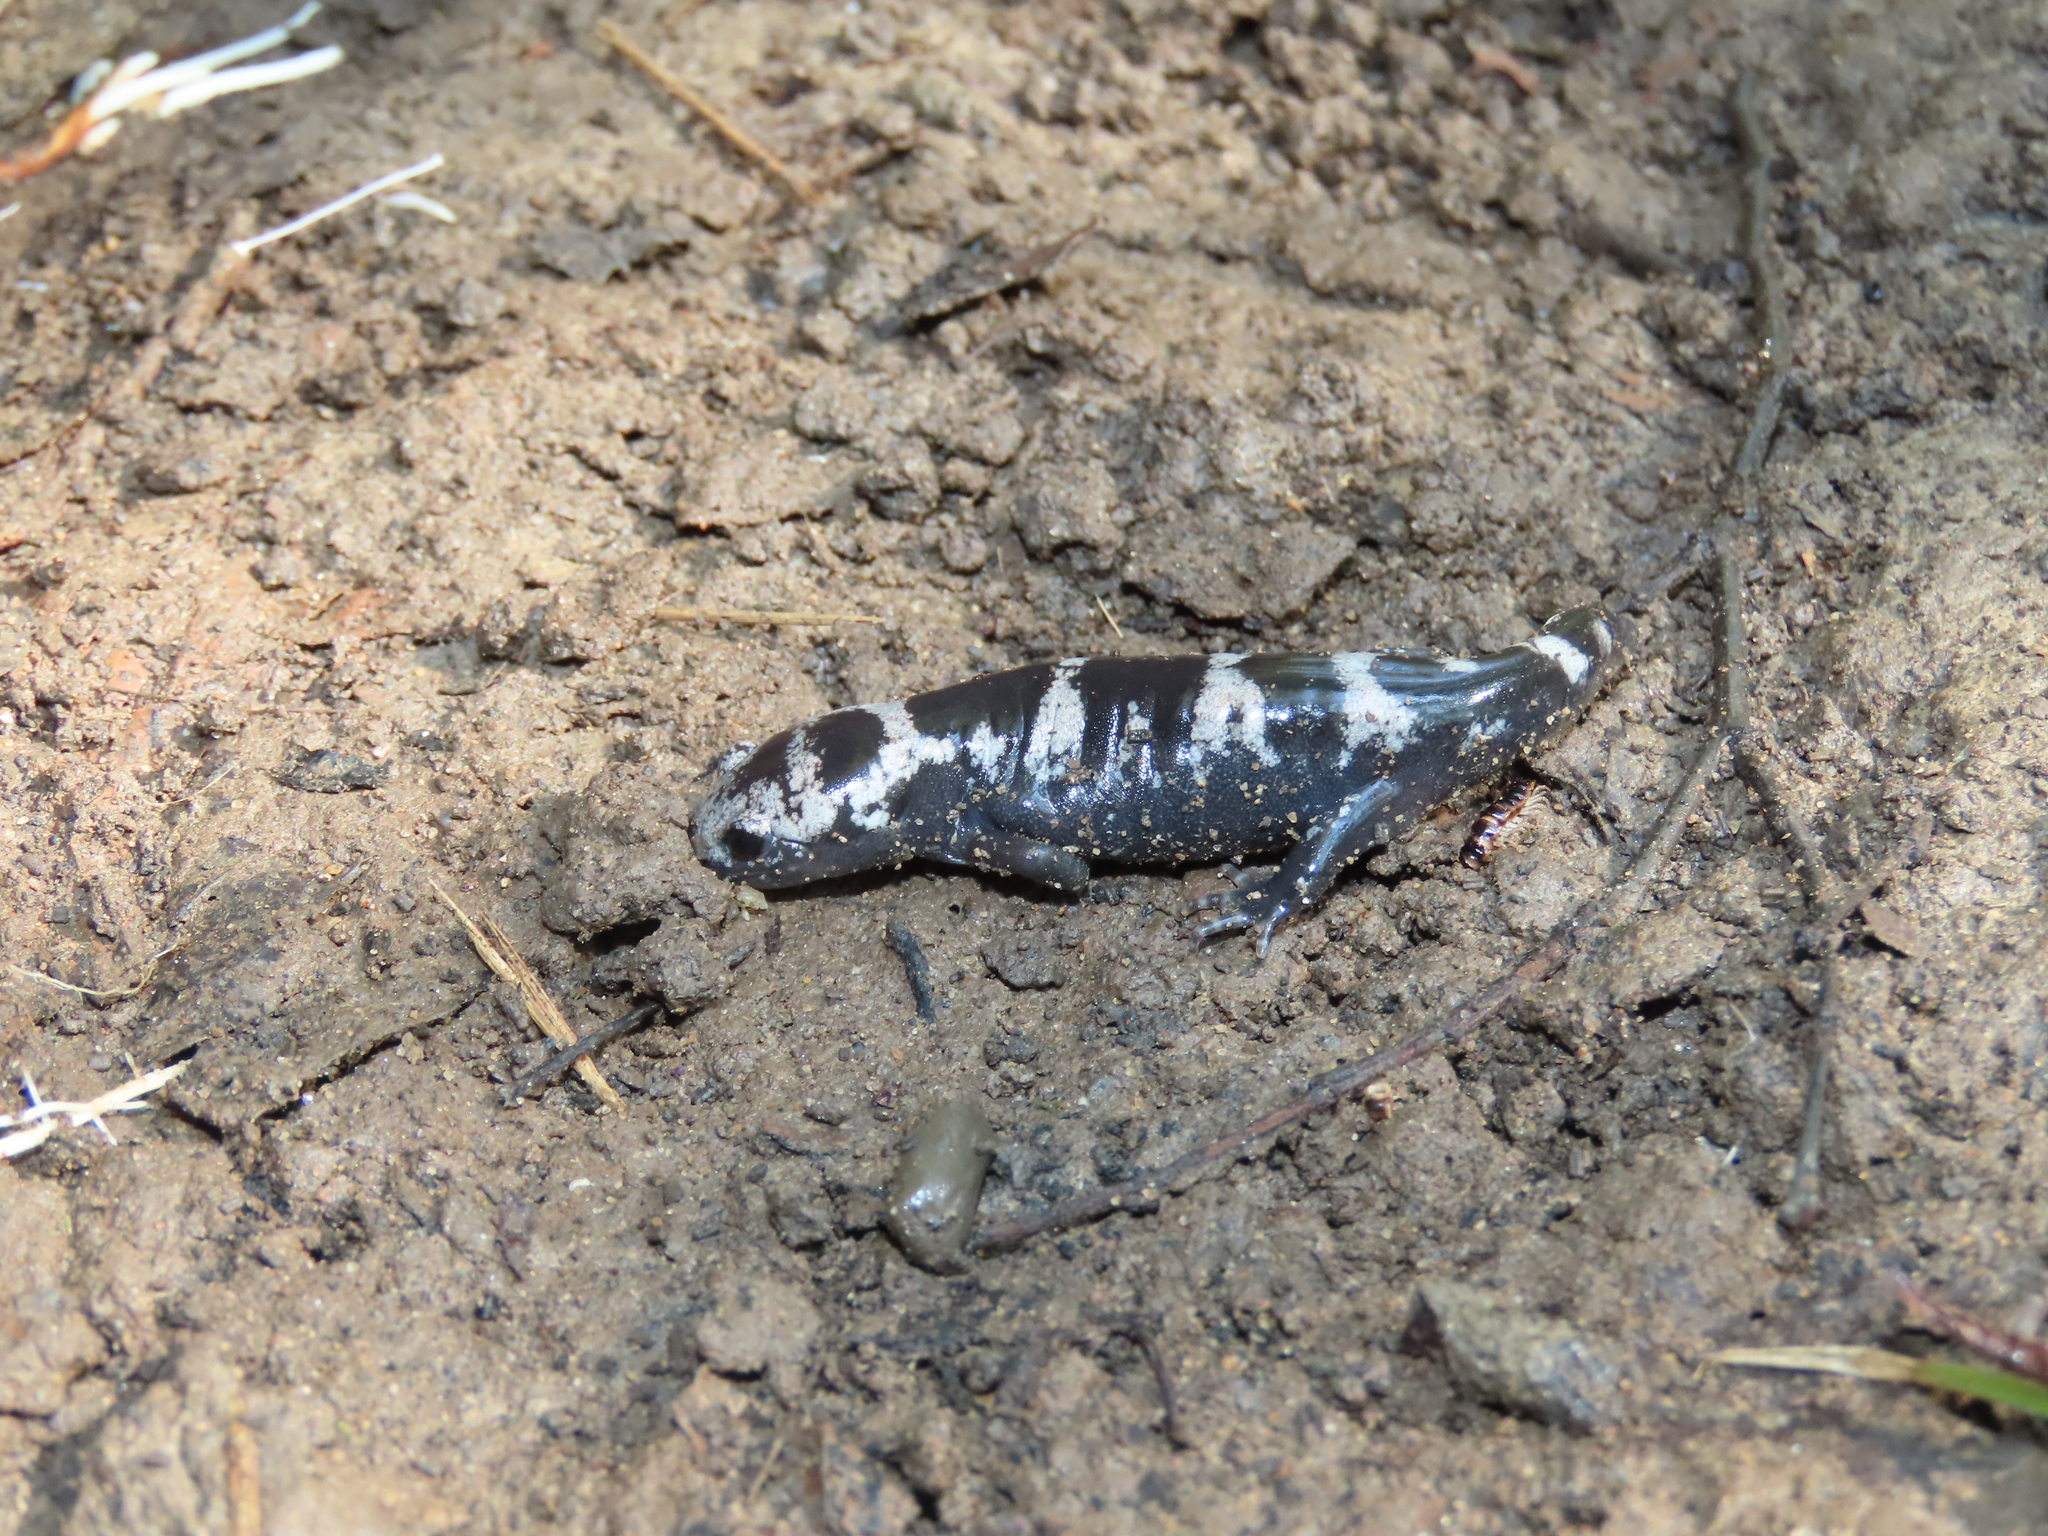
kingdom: Animalia
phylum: Chordata
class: Amphibia
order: Caudata
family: Ambystomatidae
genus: Ambystoma
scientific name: Ambystoma opacum
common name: Marbled salamander
